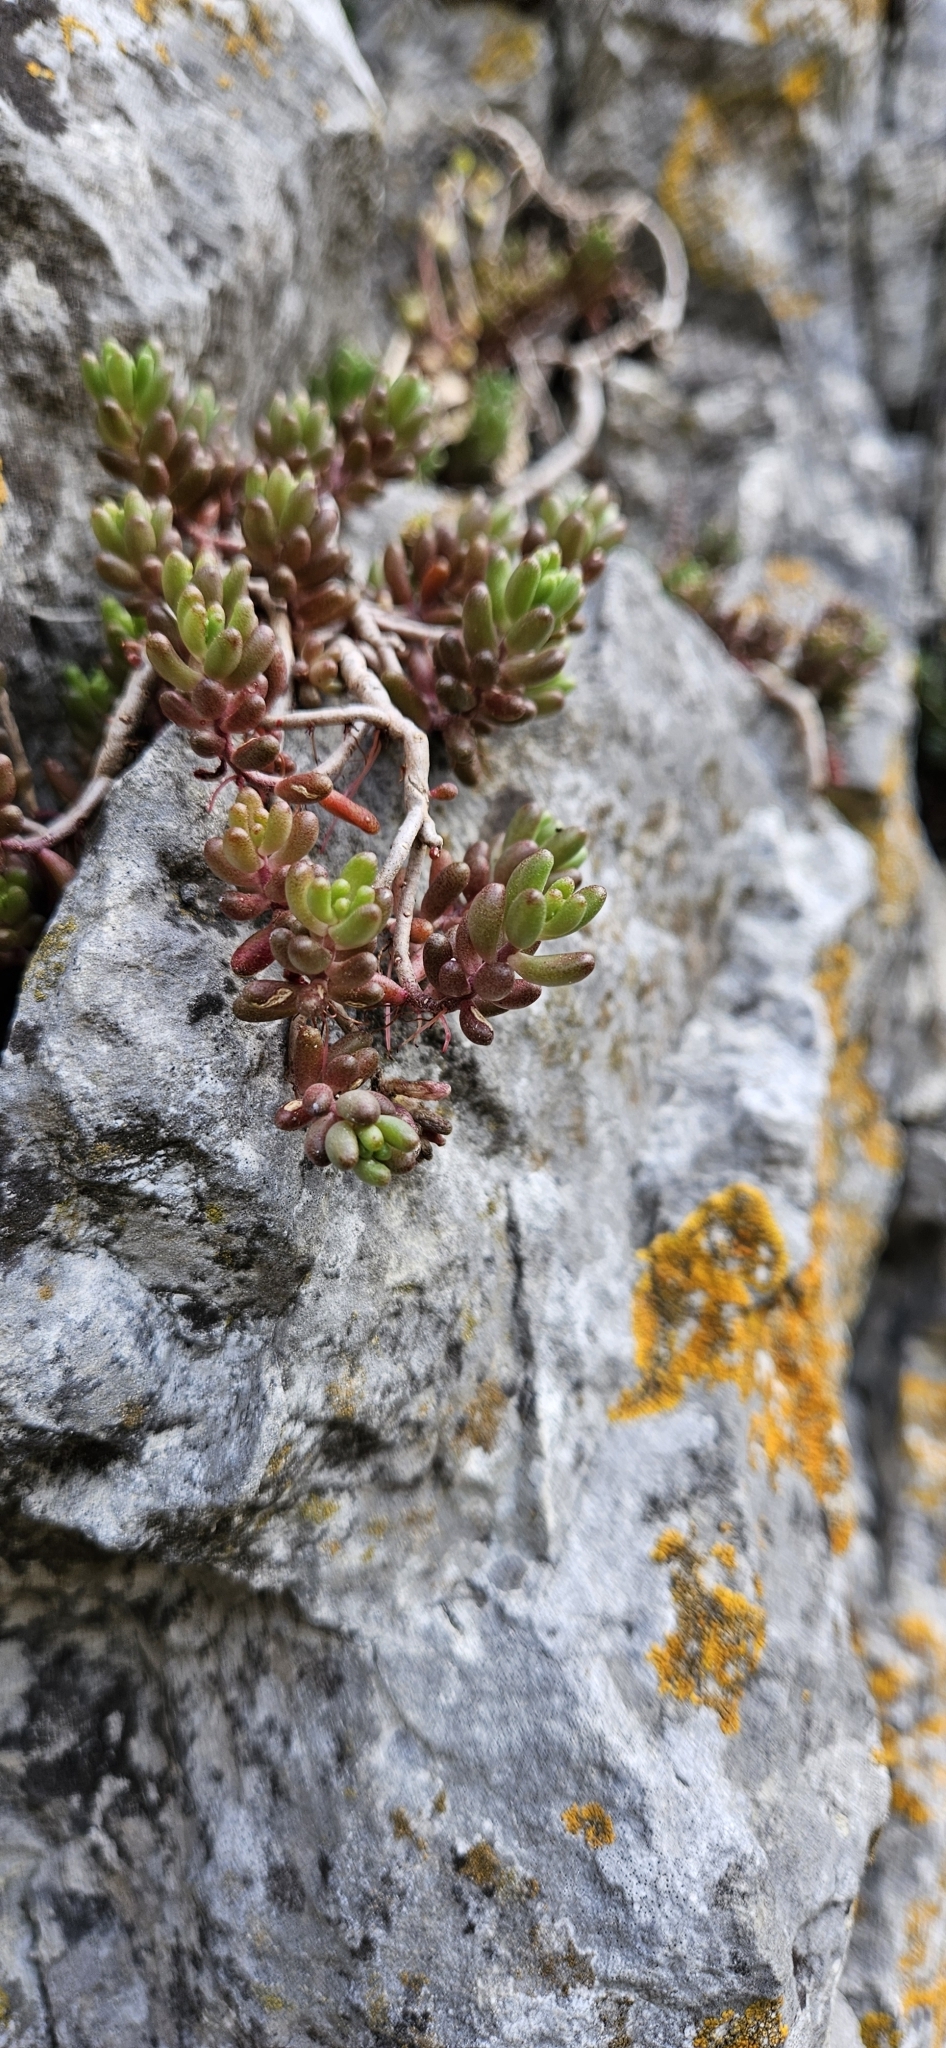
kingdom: Plantae
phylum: Tracheophyta
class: Magnoliopsida
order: Saxifragales
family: Crassulaceae
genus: Sedum
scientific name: Sedum album
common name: White stonecrop
